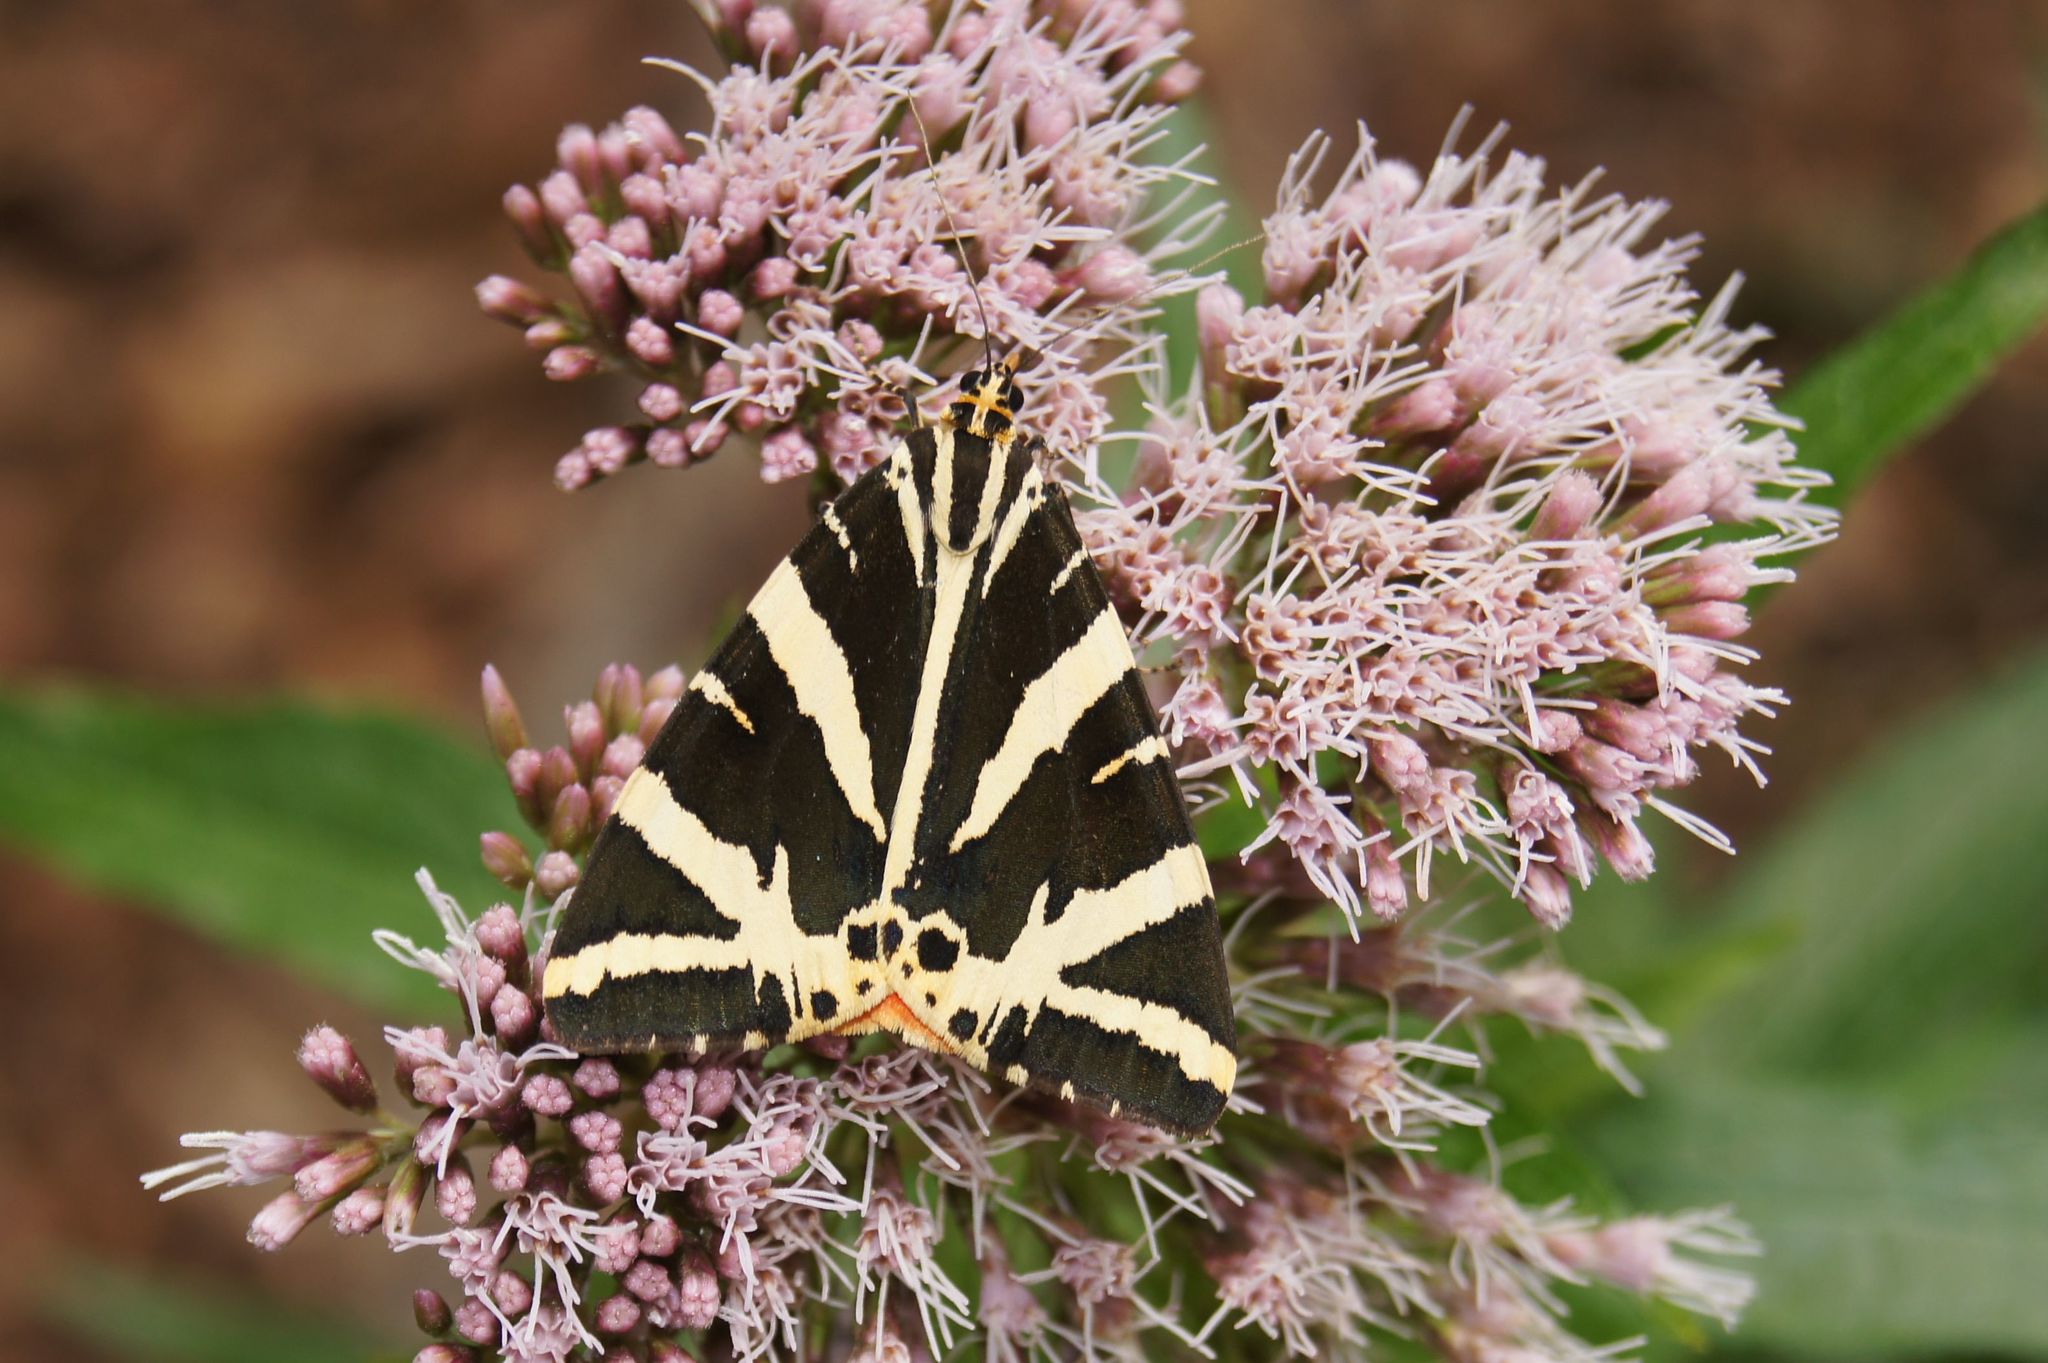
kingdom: Animalia
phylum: Arthropoda
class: Insecta
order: Lepidoptera
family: Erebidae
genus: Euplagia
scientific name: Euplagia quadripunctaria
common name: Jersey tiger
